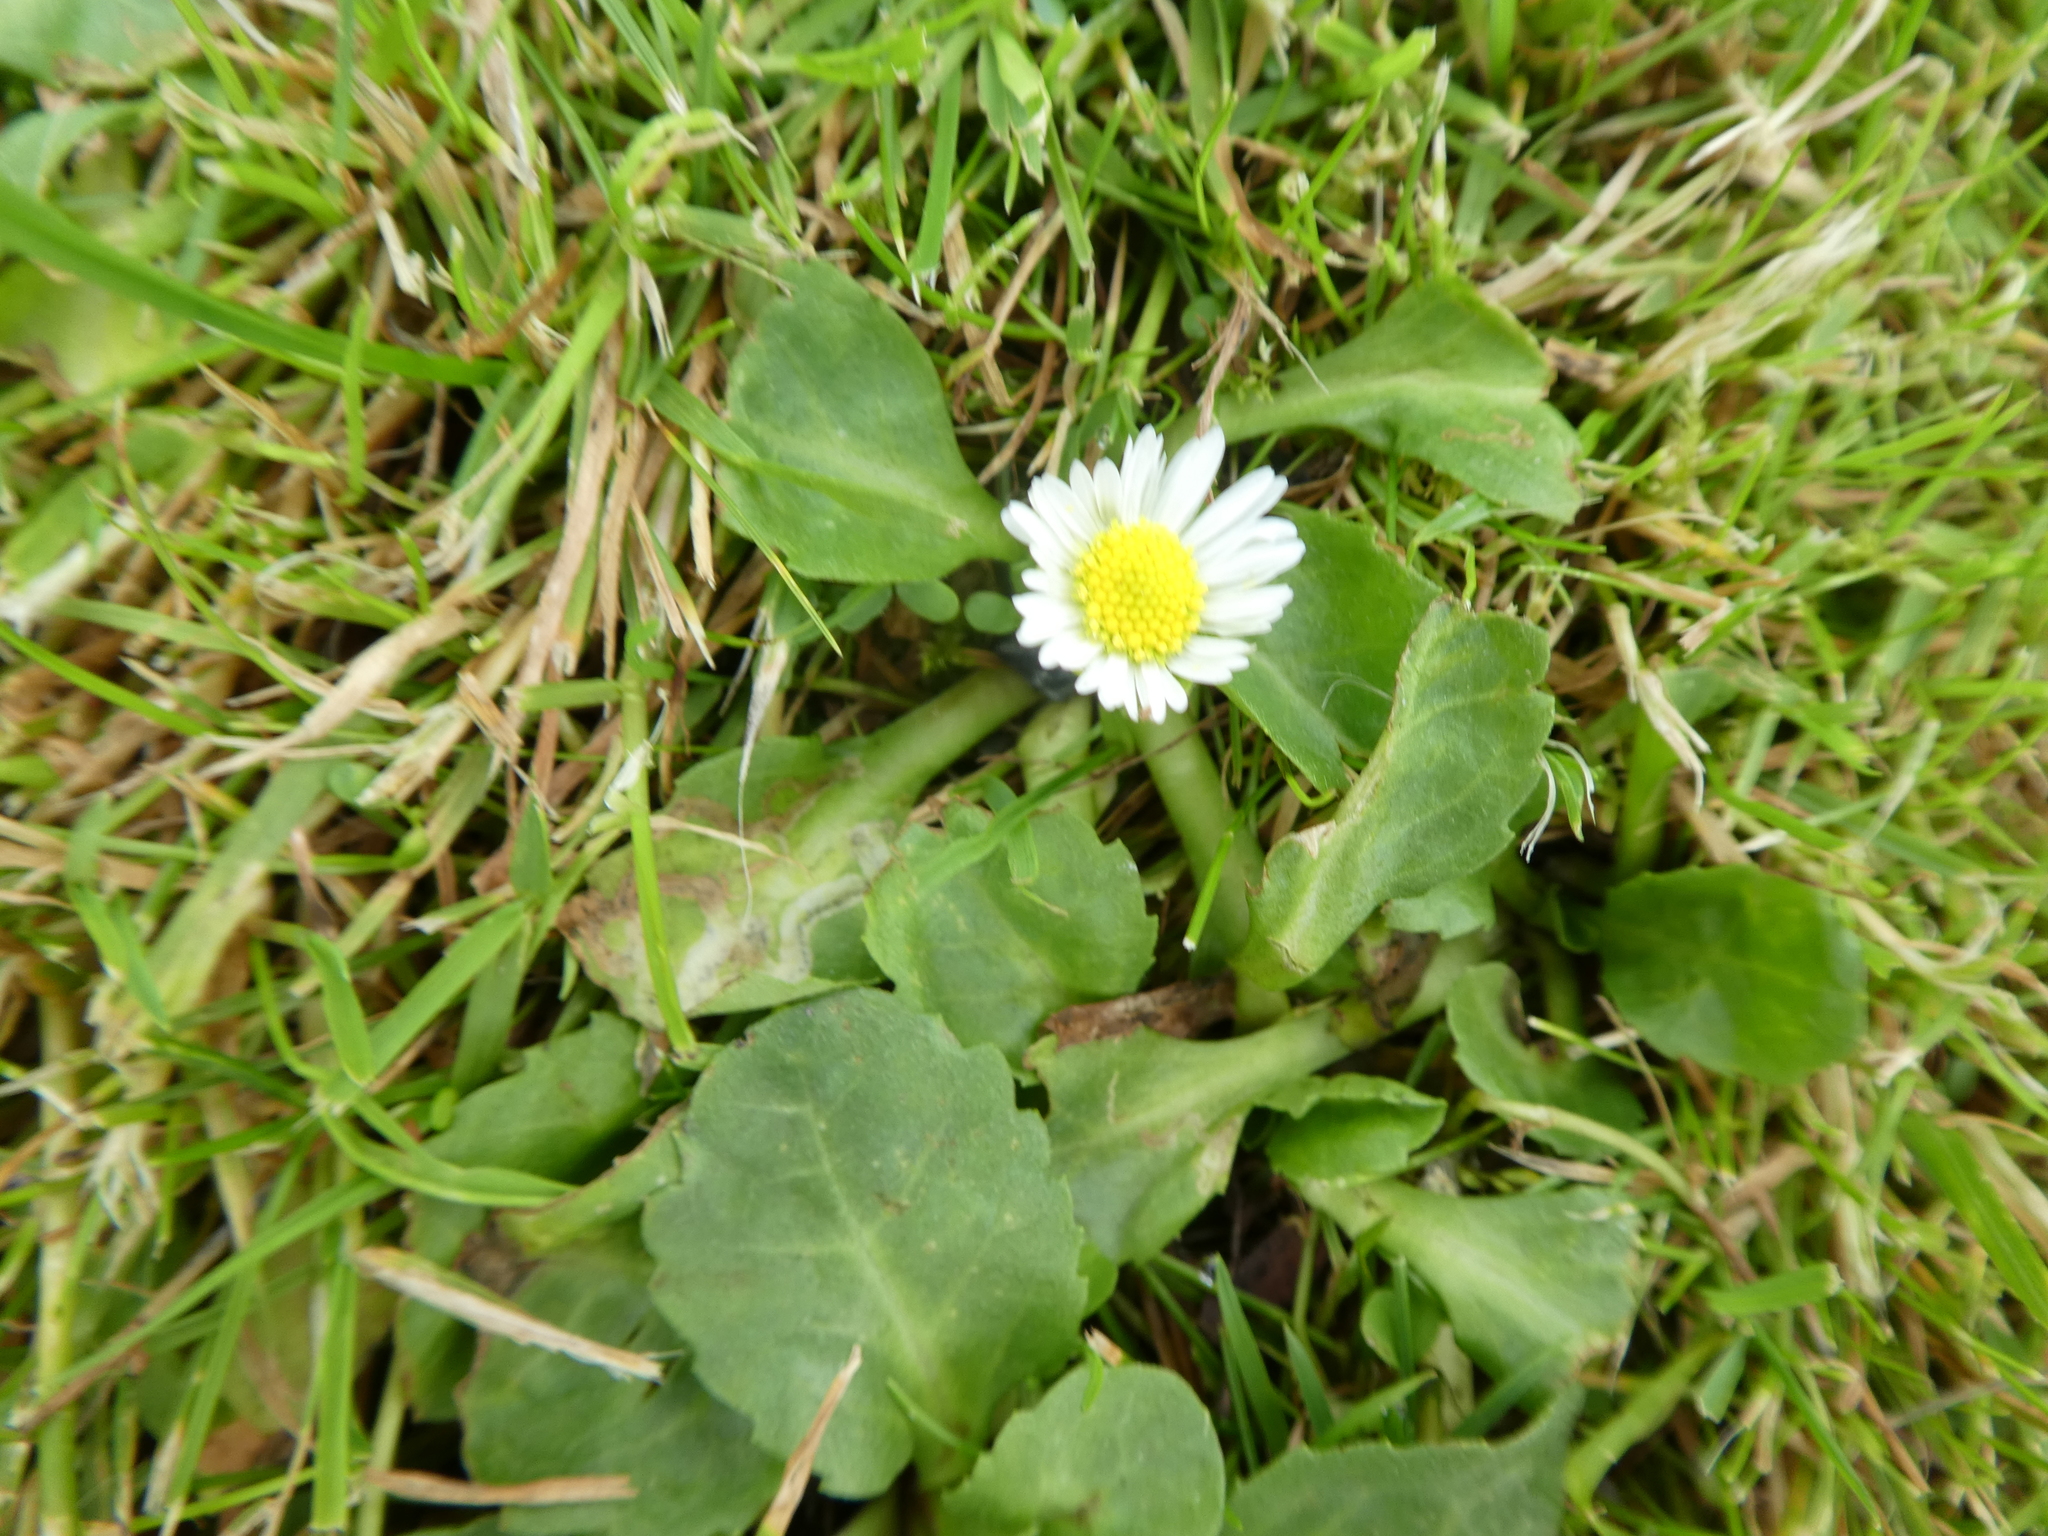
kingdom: Plantae
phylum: Tracheophyta
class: Magnoliopsida
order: Asterales
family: Asteraceae
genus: Bellis
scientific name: Bellis perennis
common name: Lawndaisy
